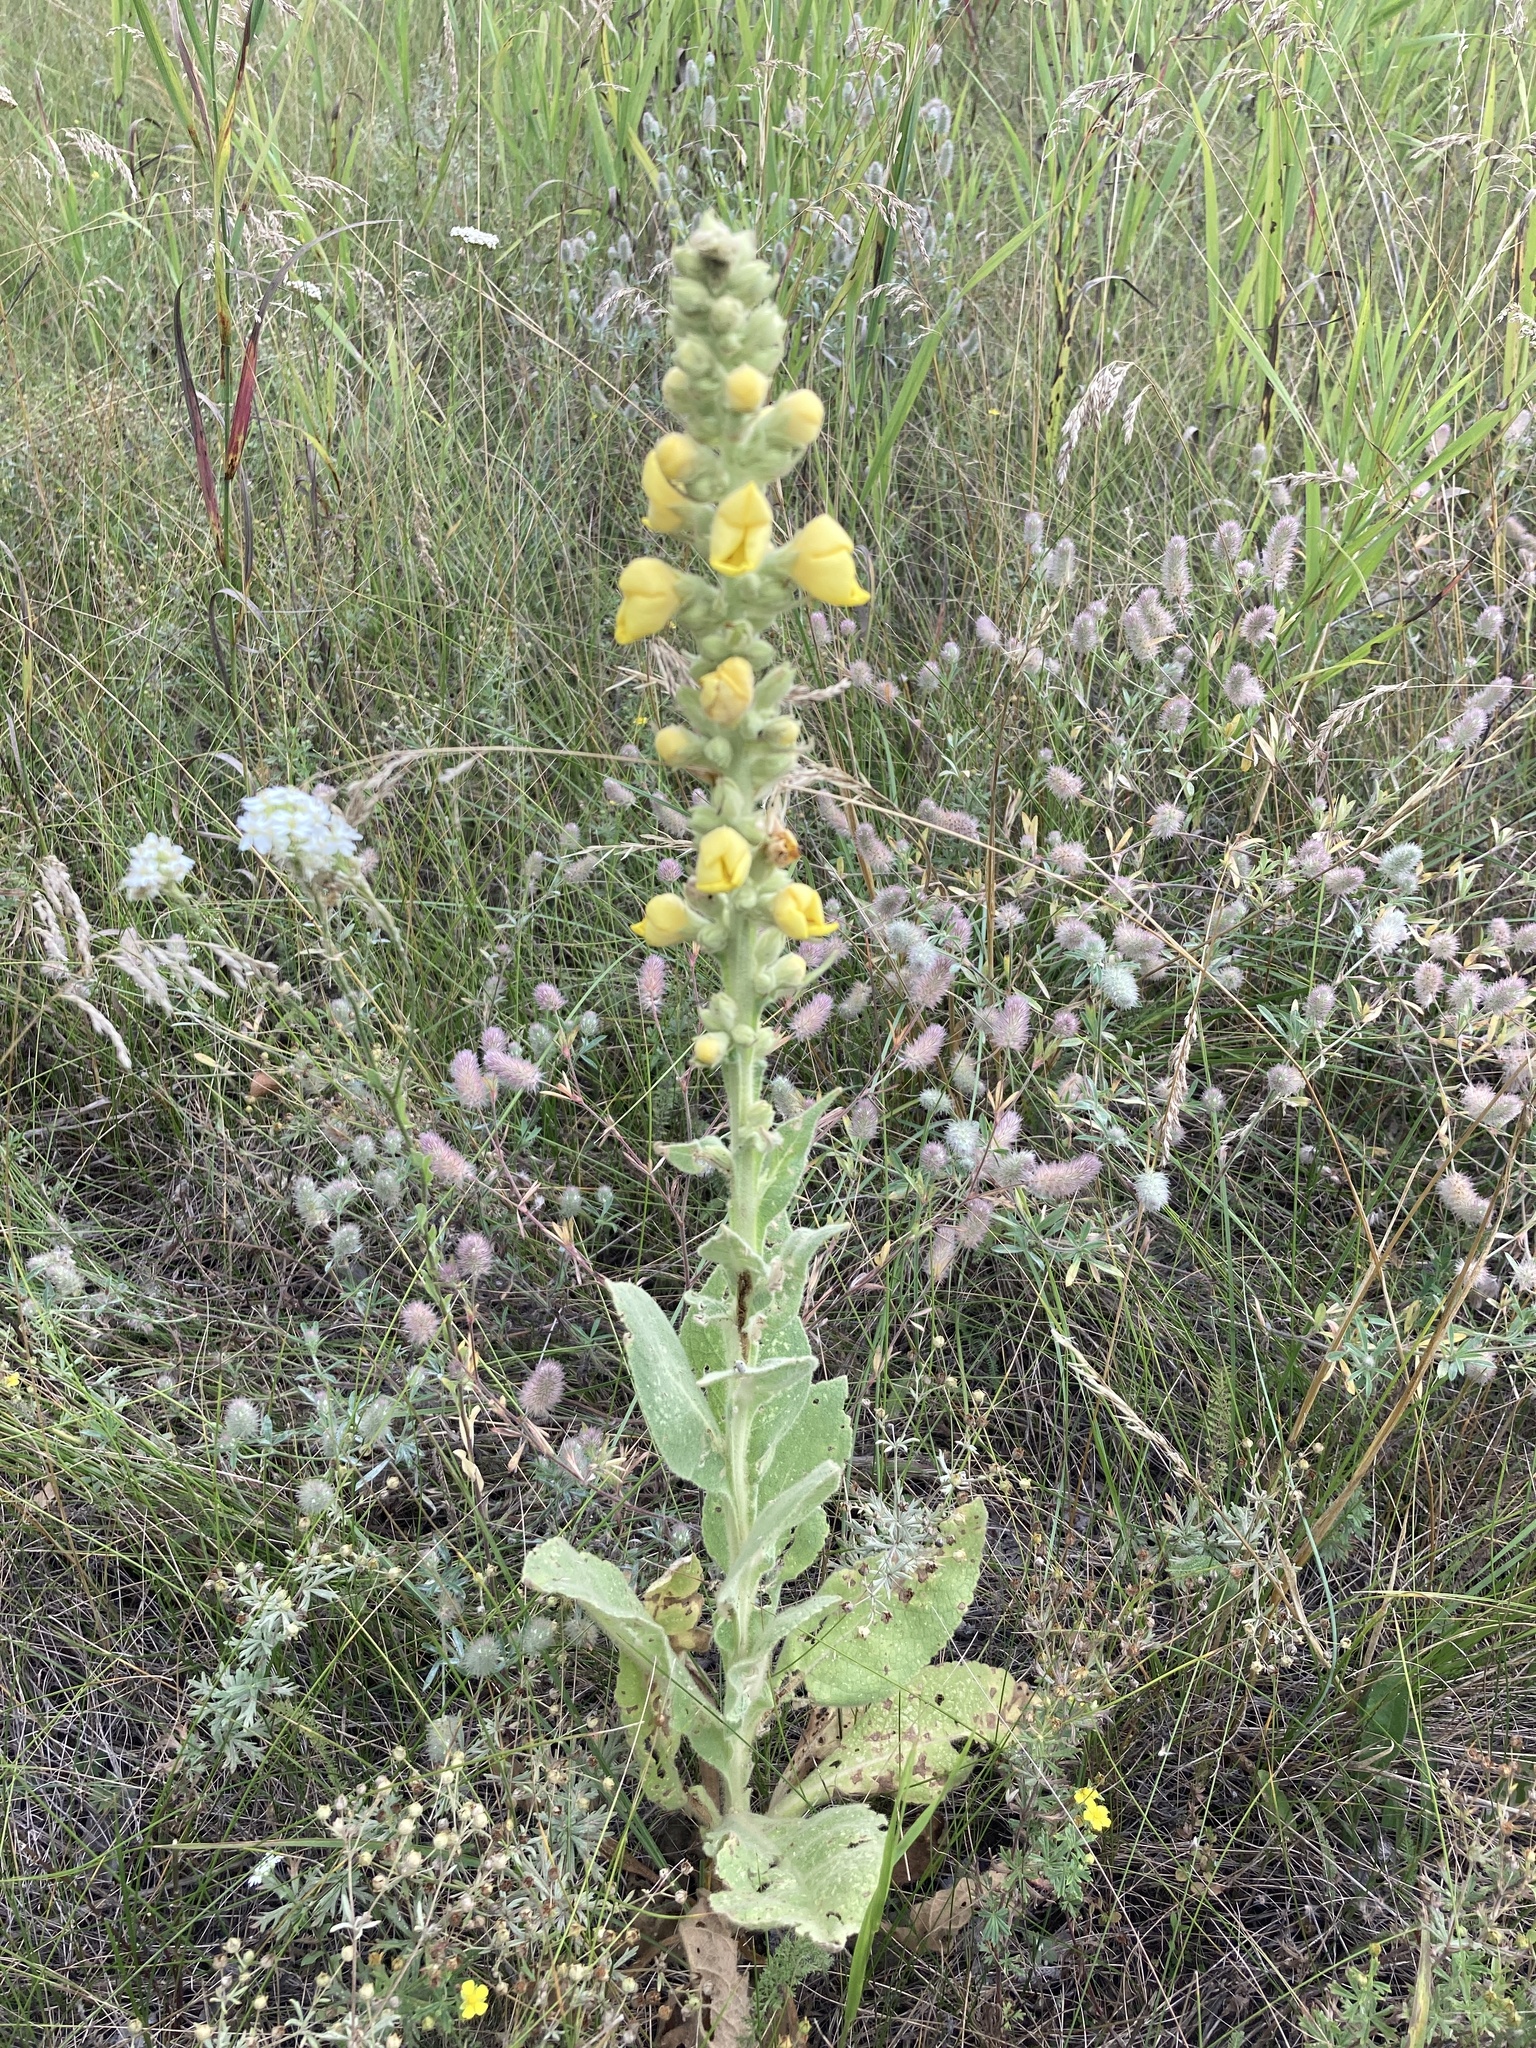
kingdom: Plantae
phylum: Tracheophyta
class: Magnoliopsida
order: Lamiales
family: Scrophulariaceae
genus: Verbascum
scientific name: Verbascum densiflorum
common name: Dense-flowered mullein
